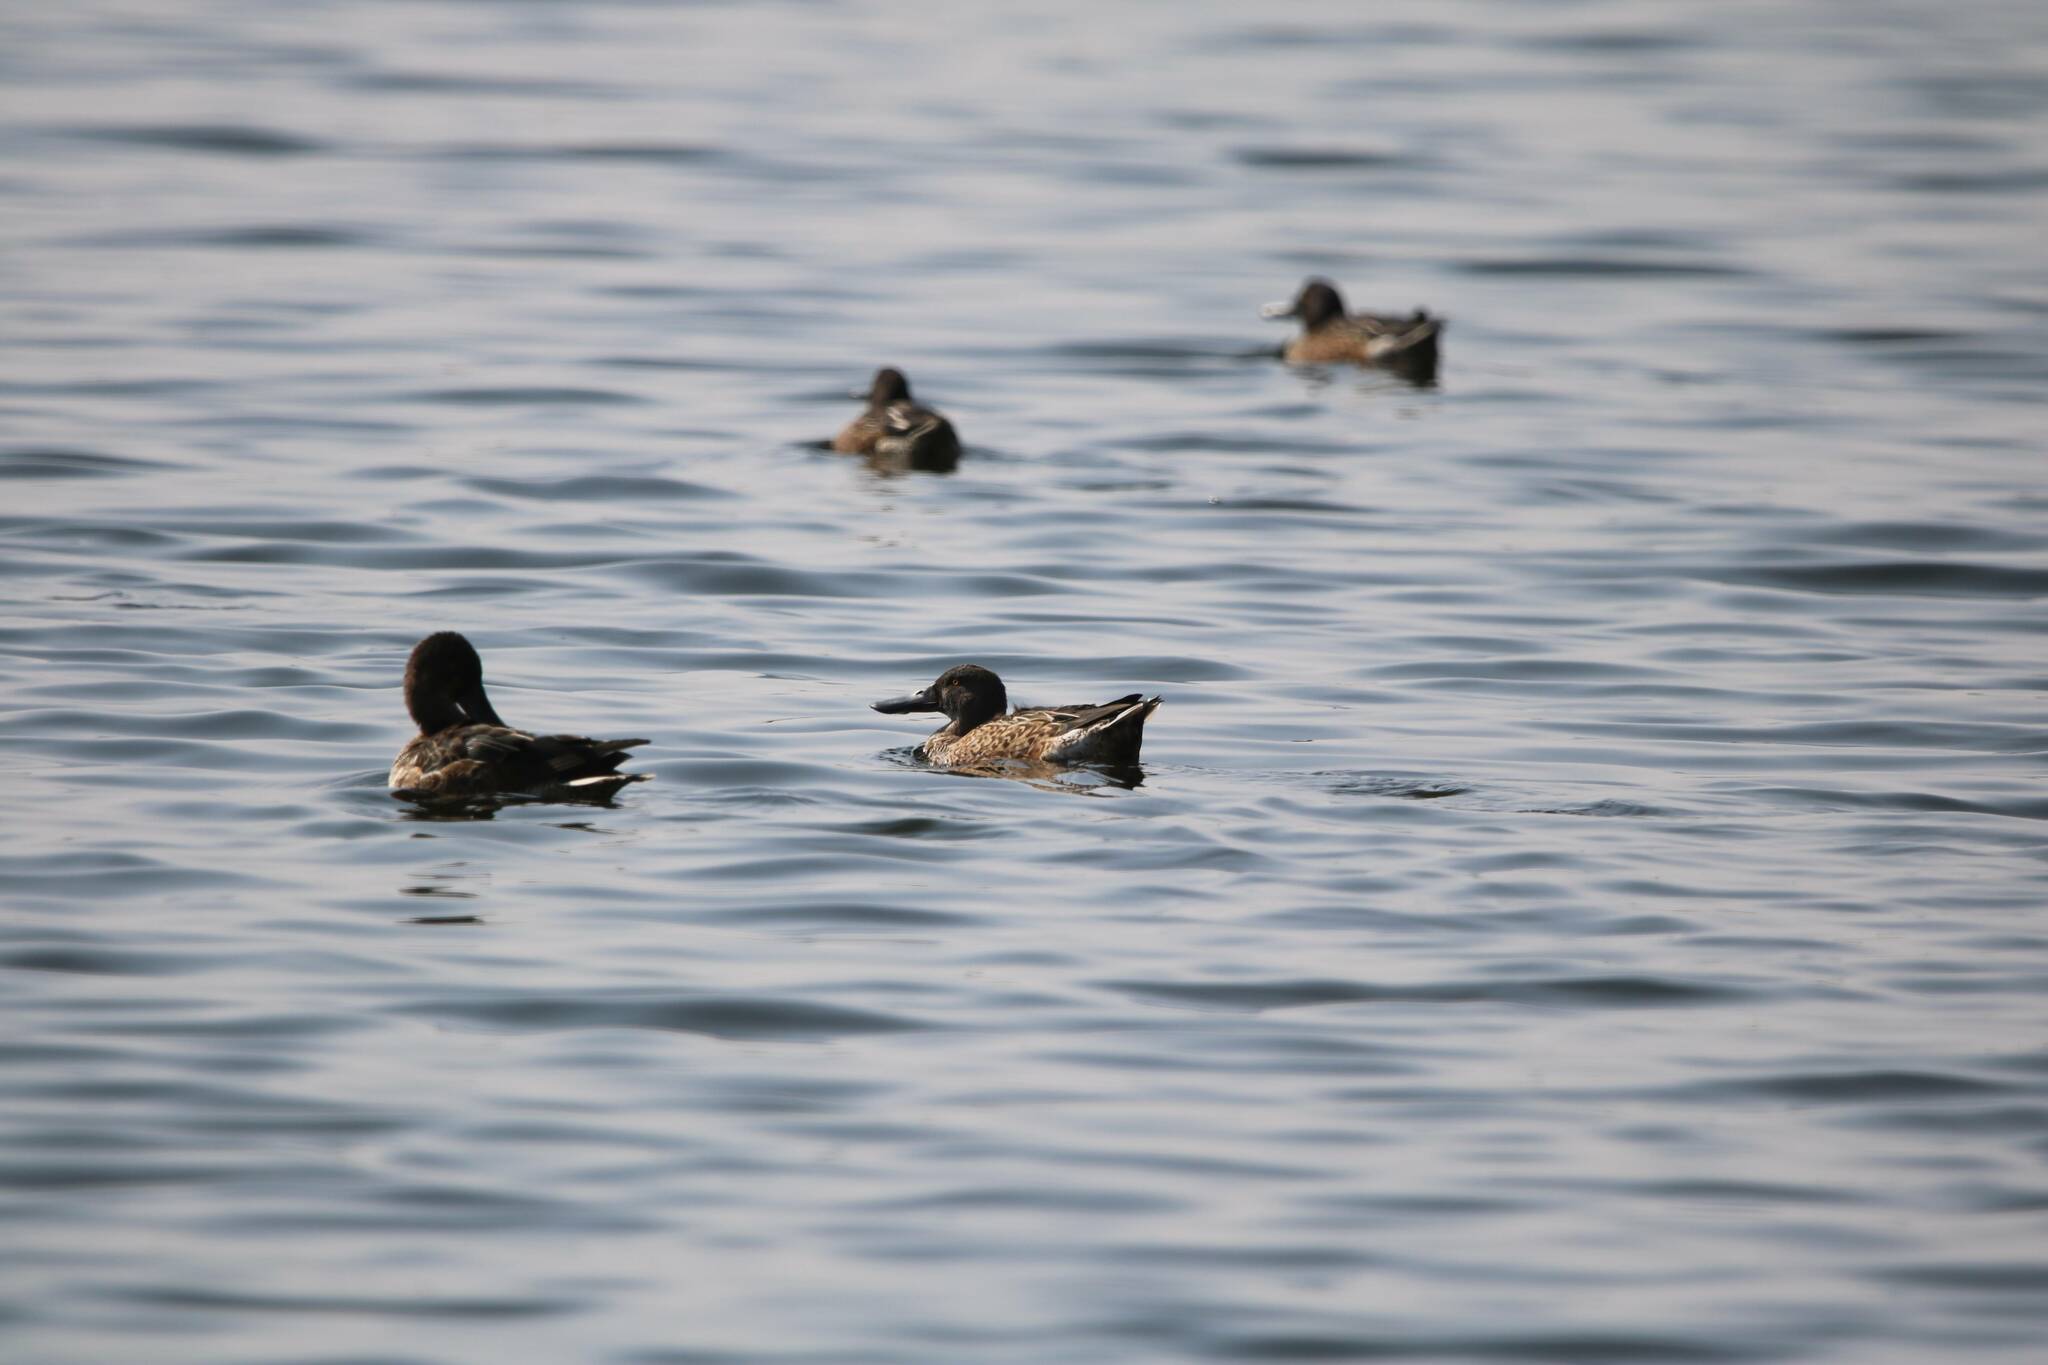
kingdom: Animalia
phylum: Chordata
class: Aves
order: Anseriformes
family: Anatidae
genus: Spatula
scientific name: Spatula clypeata
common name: Northern shoveler
